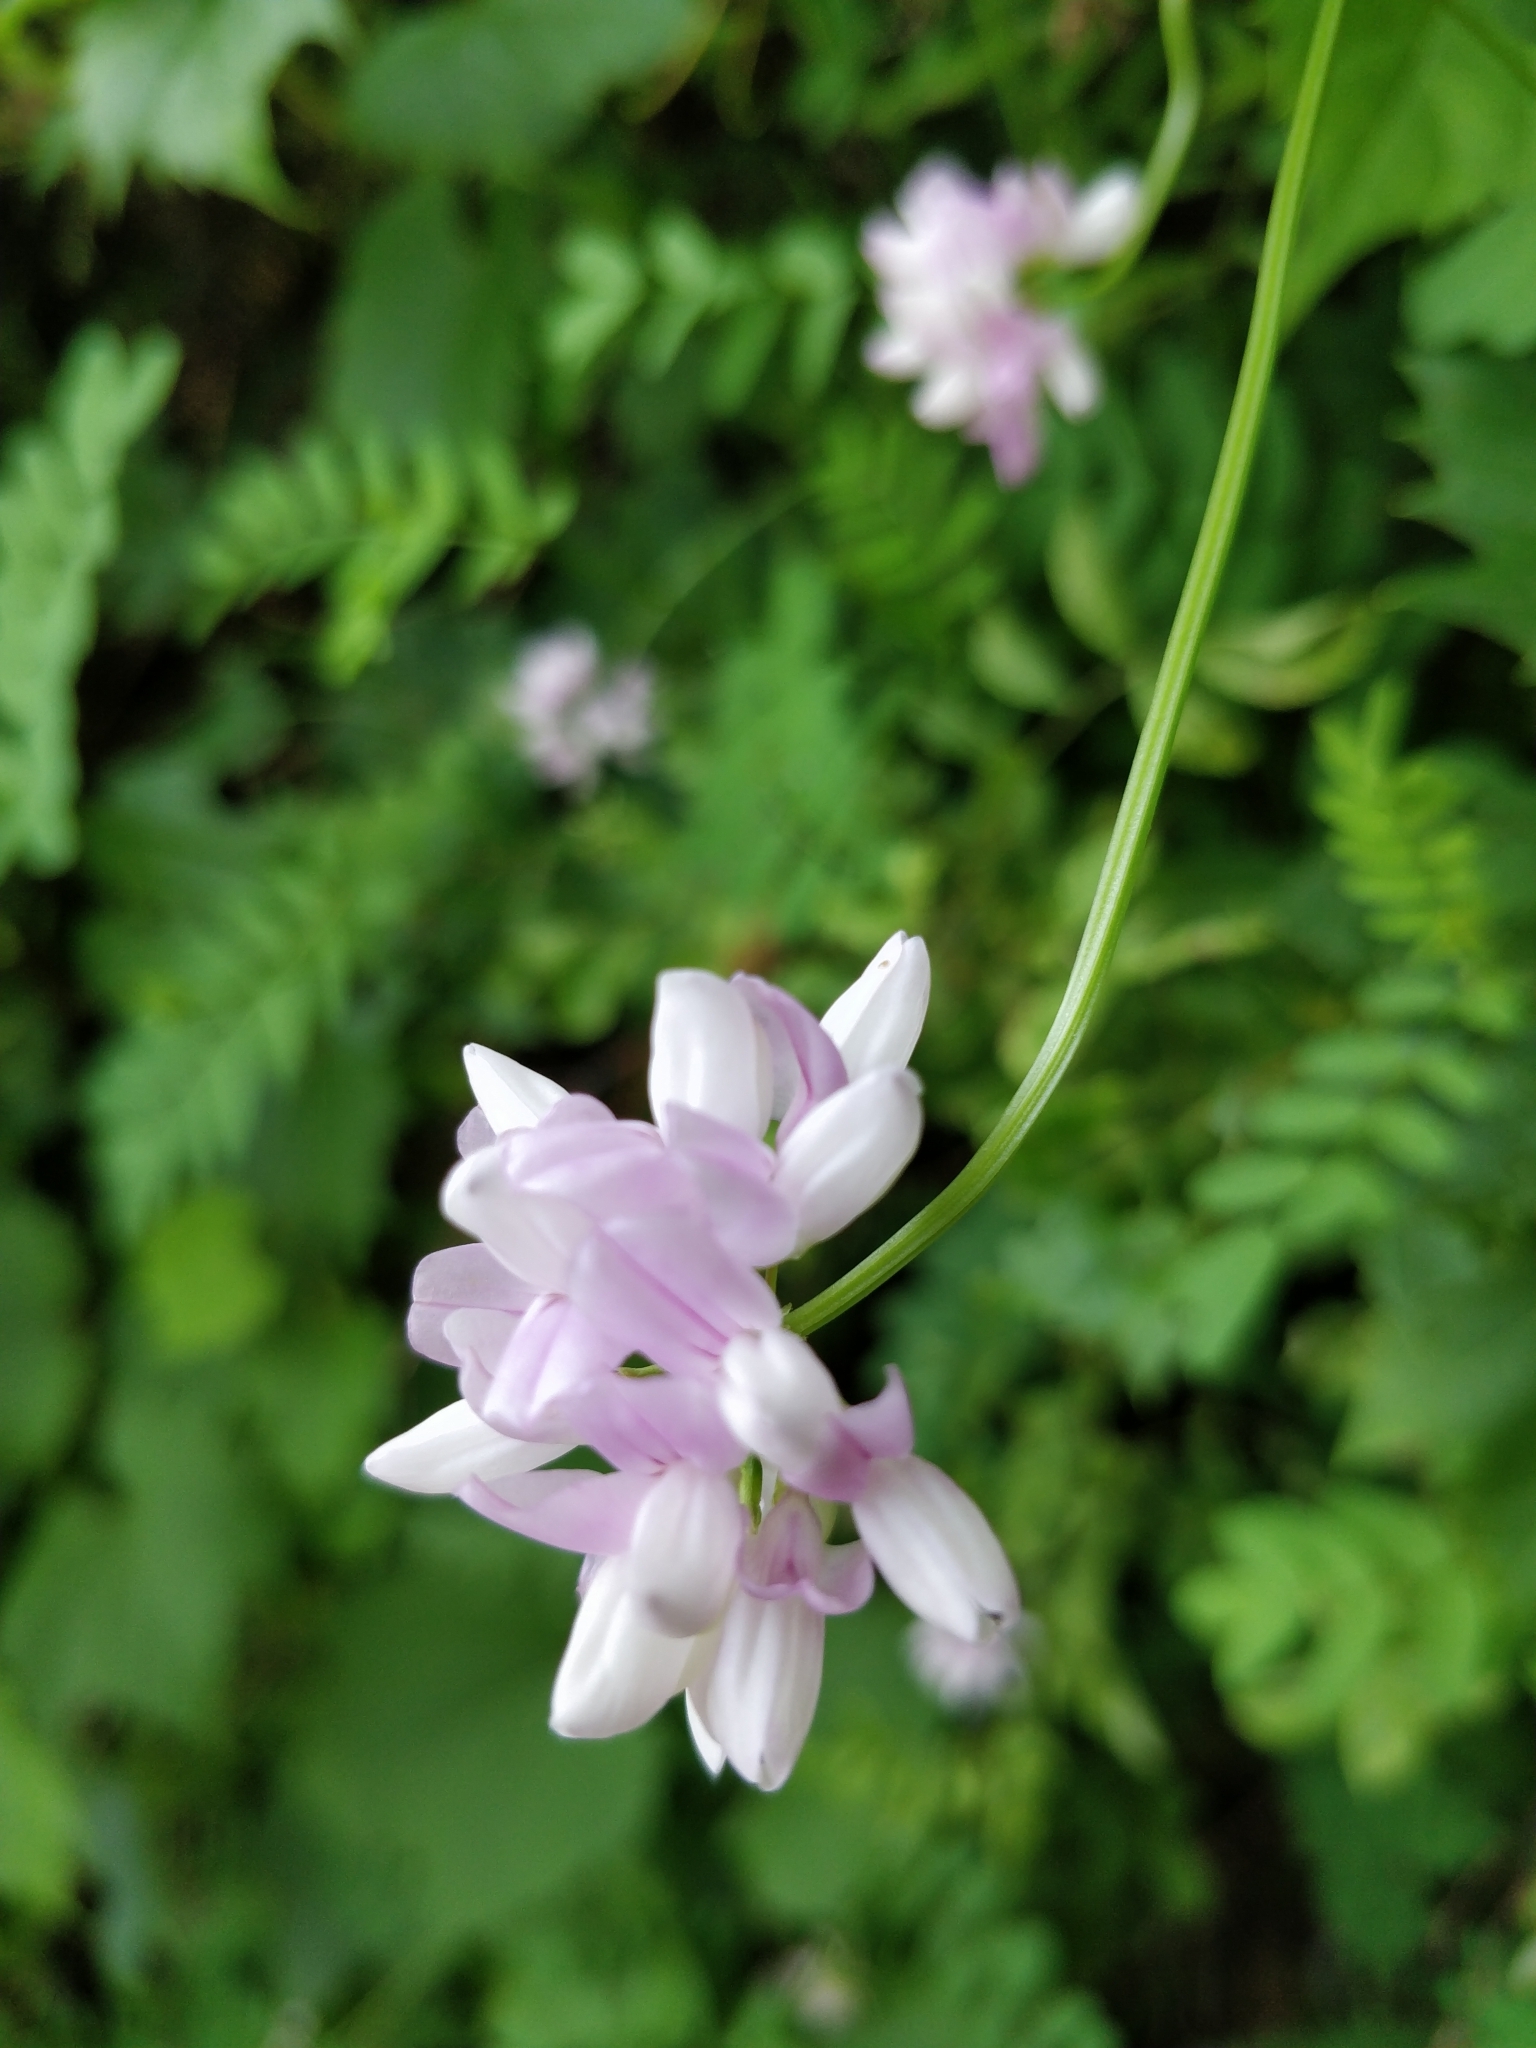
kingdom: Plantae
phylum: Tracheophyta
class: Magnoliopsida
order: Fabales
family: Fabaceae
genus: Coronilla
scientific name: Coronilla varia
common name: Crownvetch
